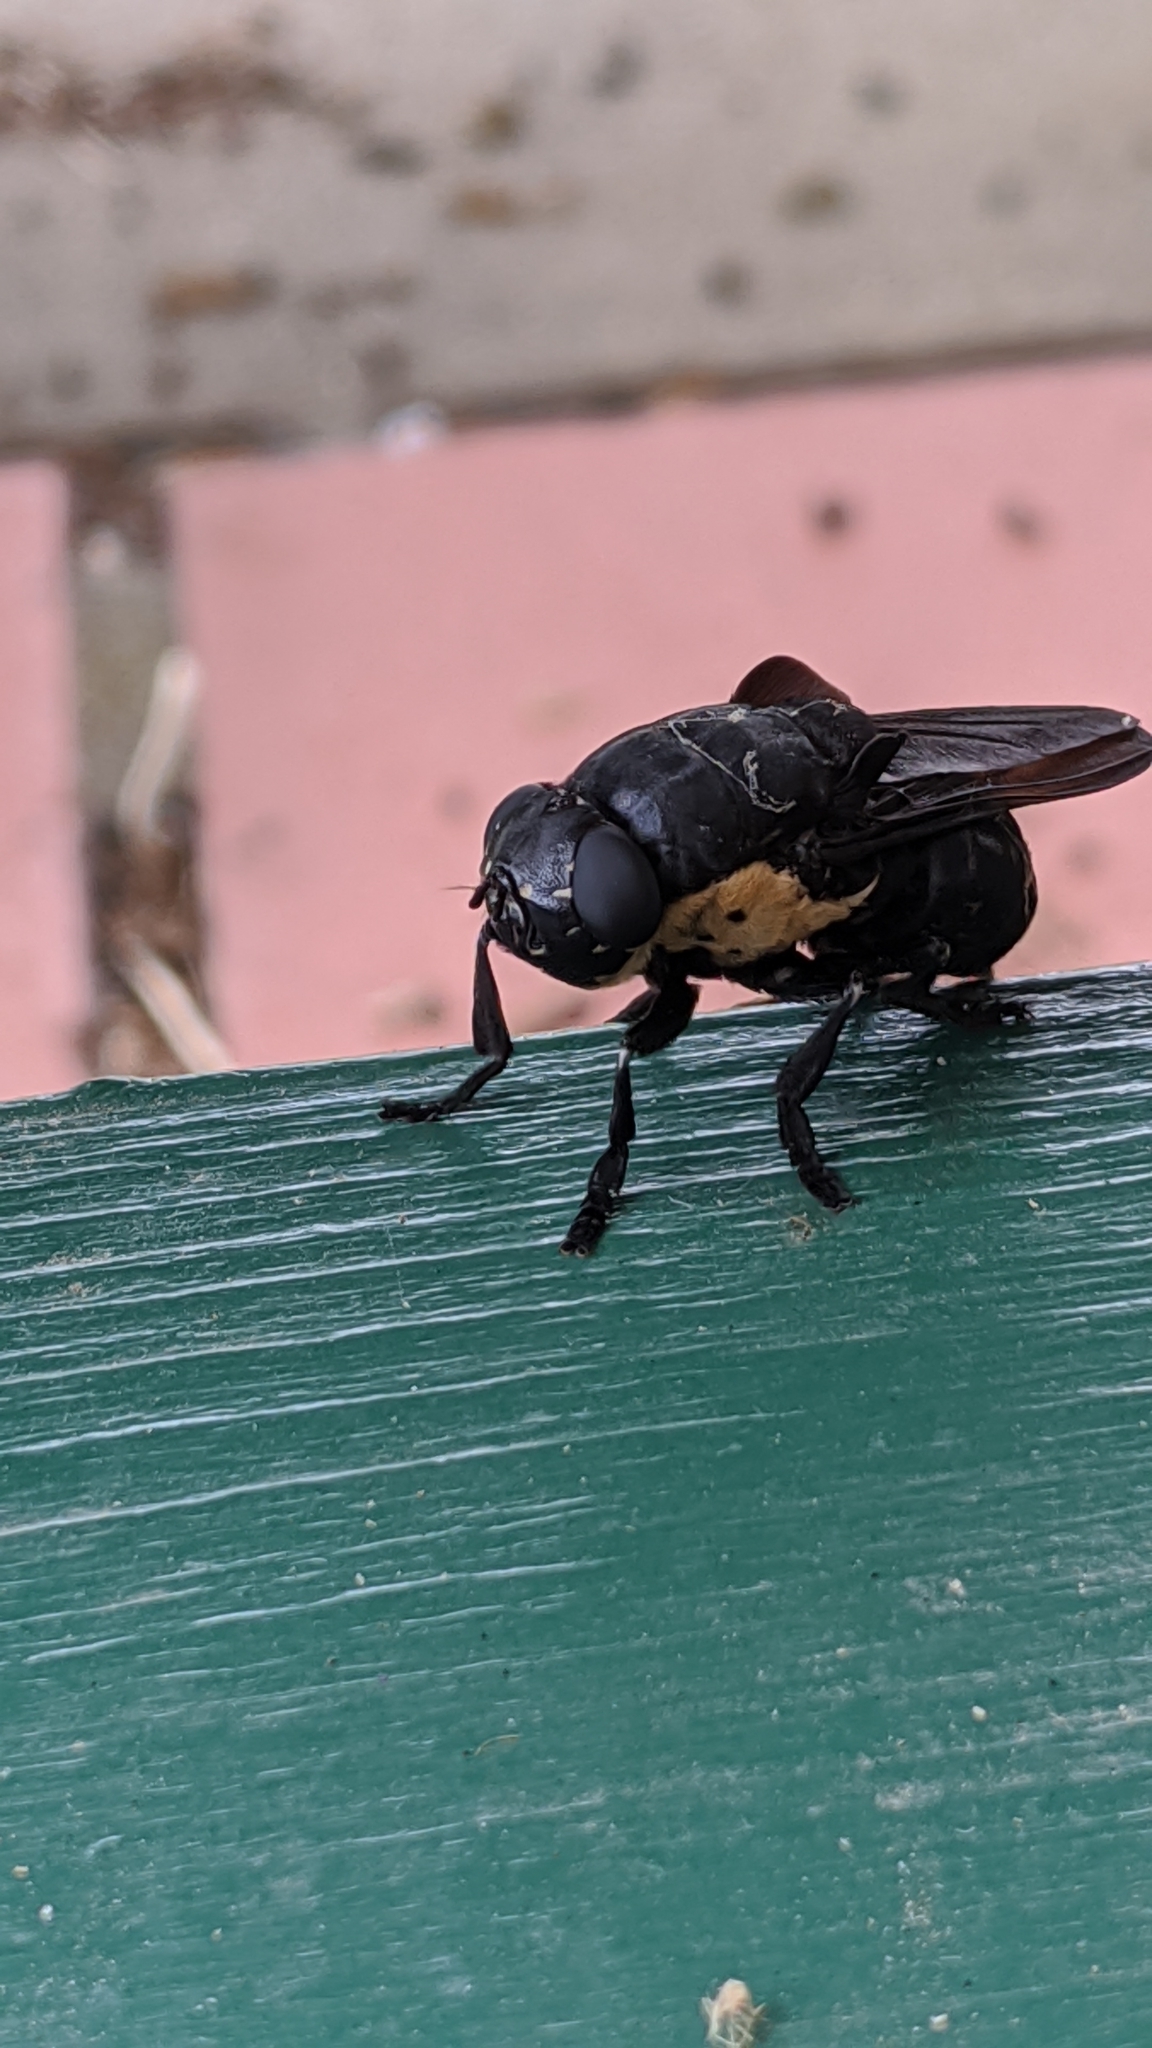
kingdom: Animalia
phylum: Arthropoda
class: Insecta
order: Diptera
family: Oestridae
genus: Cuterebra
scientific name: Cuterebra americana
